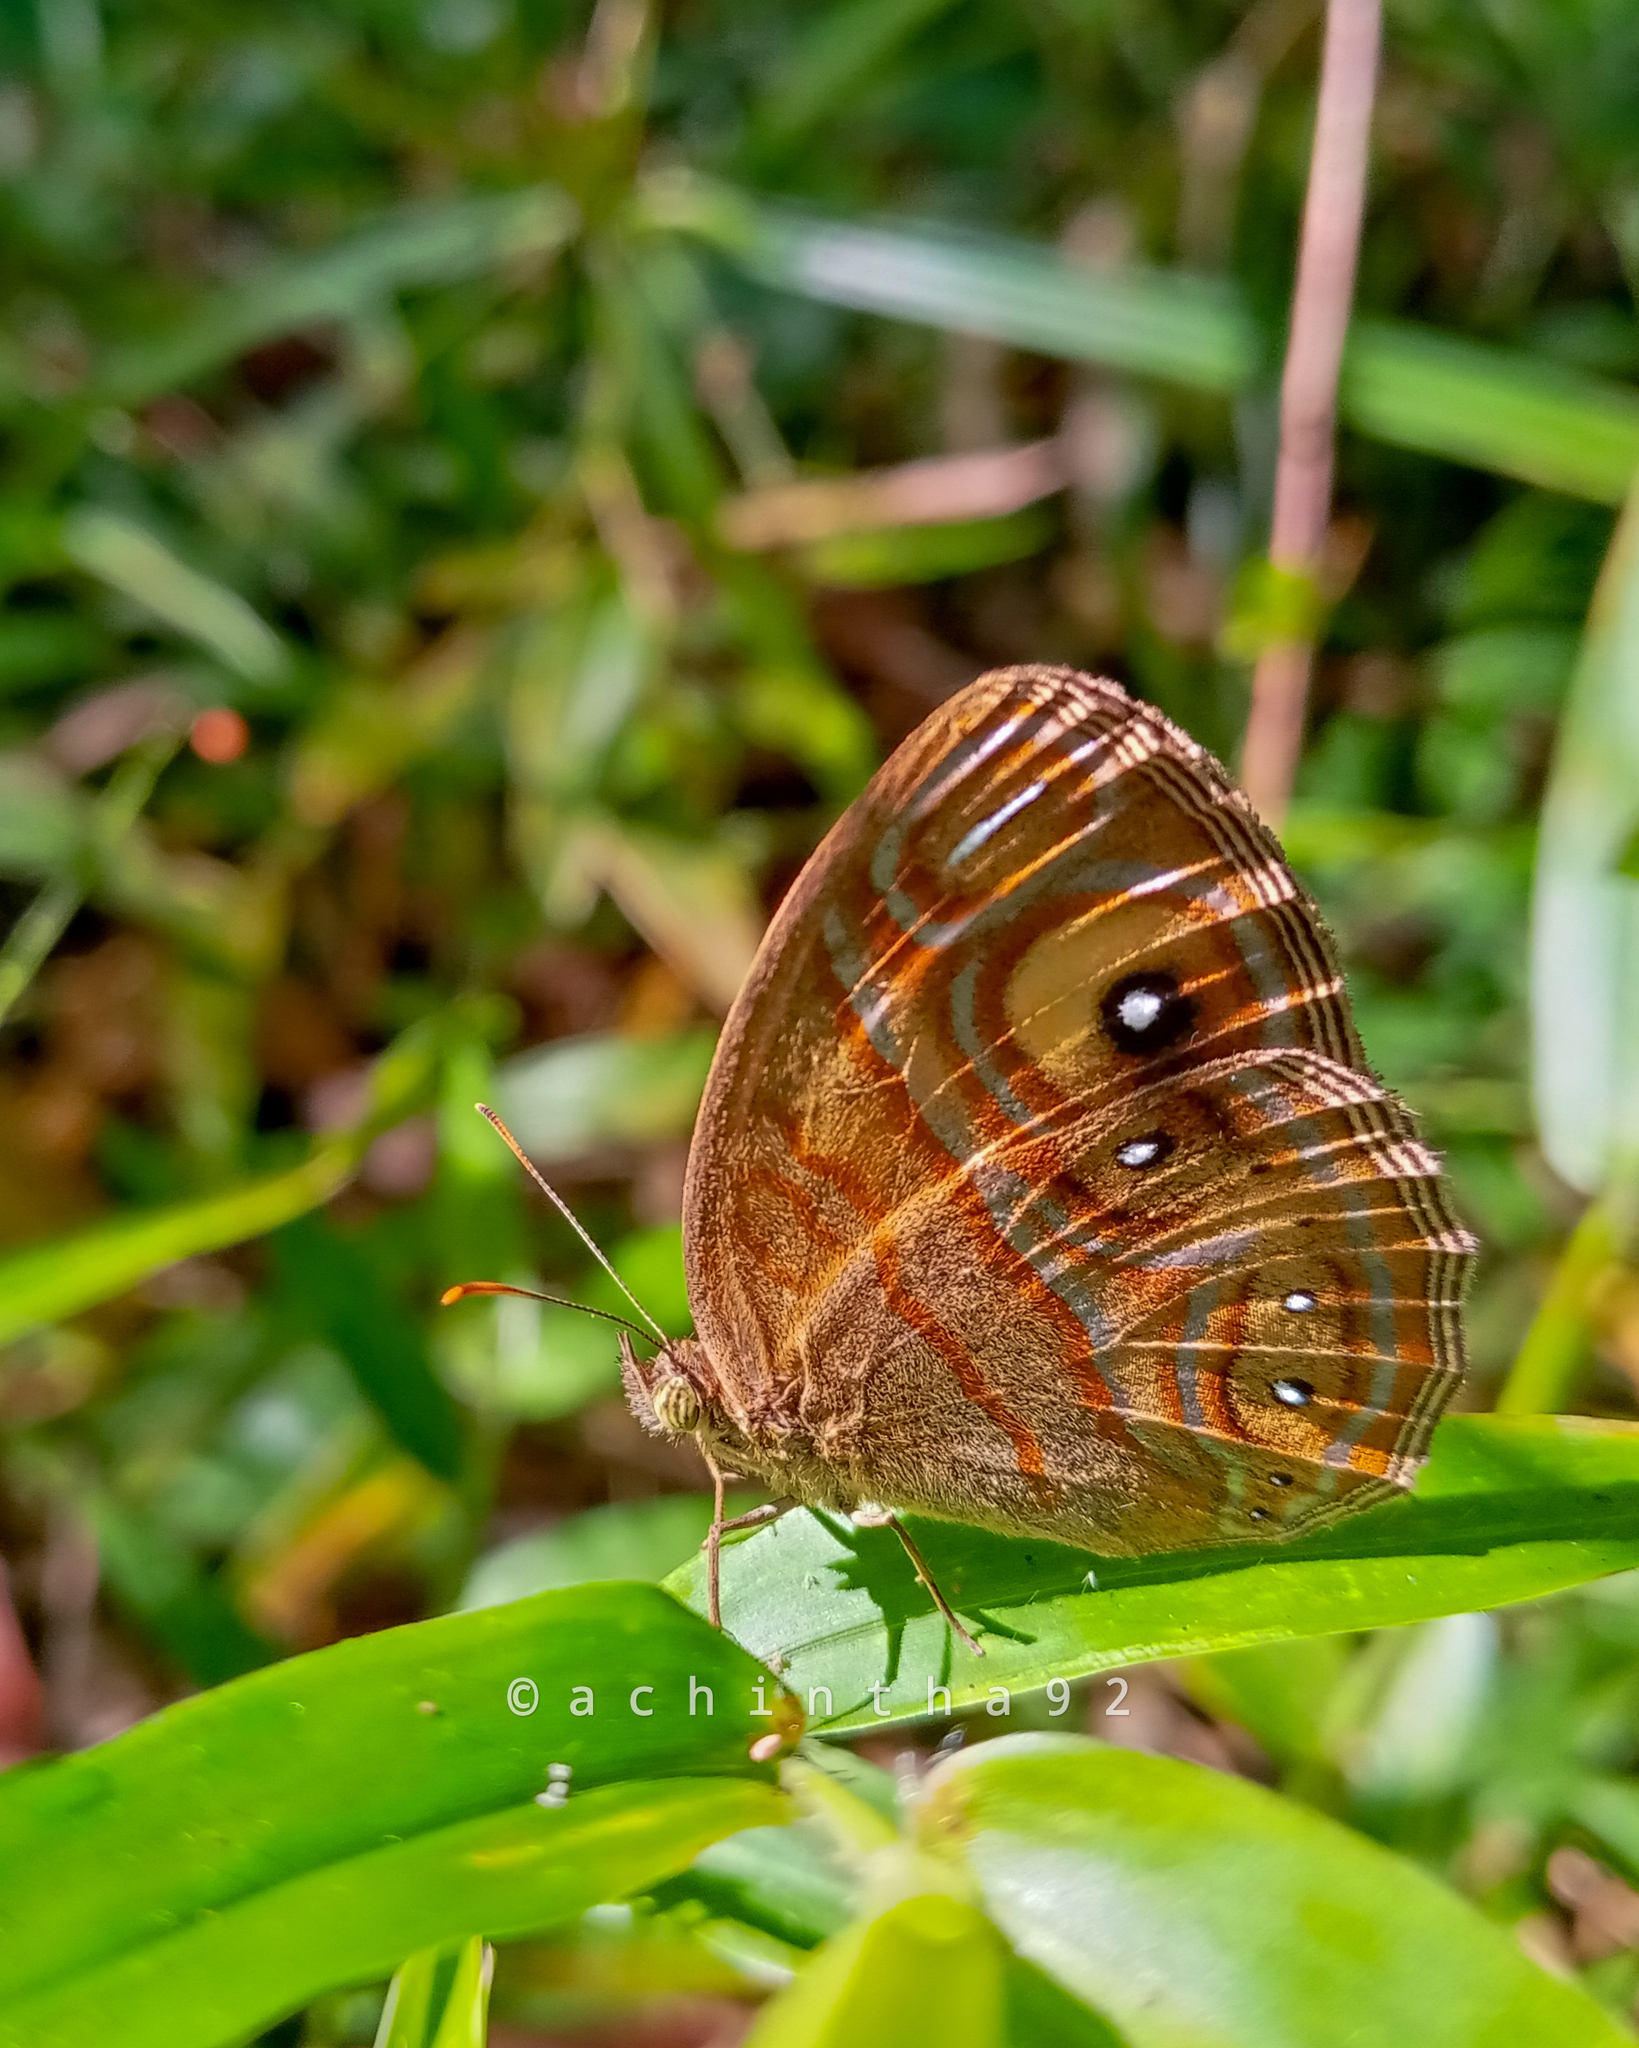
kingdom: Animalia
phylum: Arthropoda
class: Insecta
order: Lepidoptera
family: Nymphalidae
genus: Mycalesis
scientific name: Mycalesis patnia
